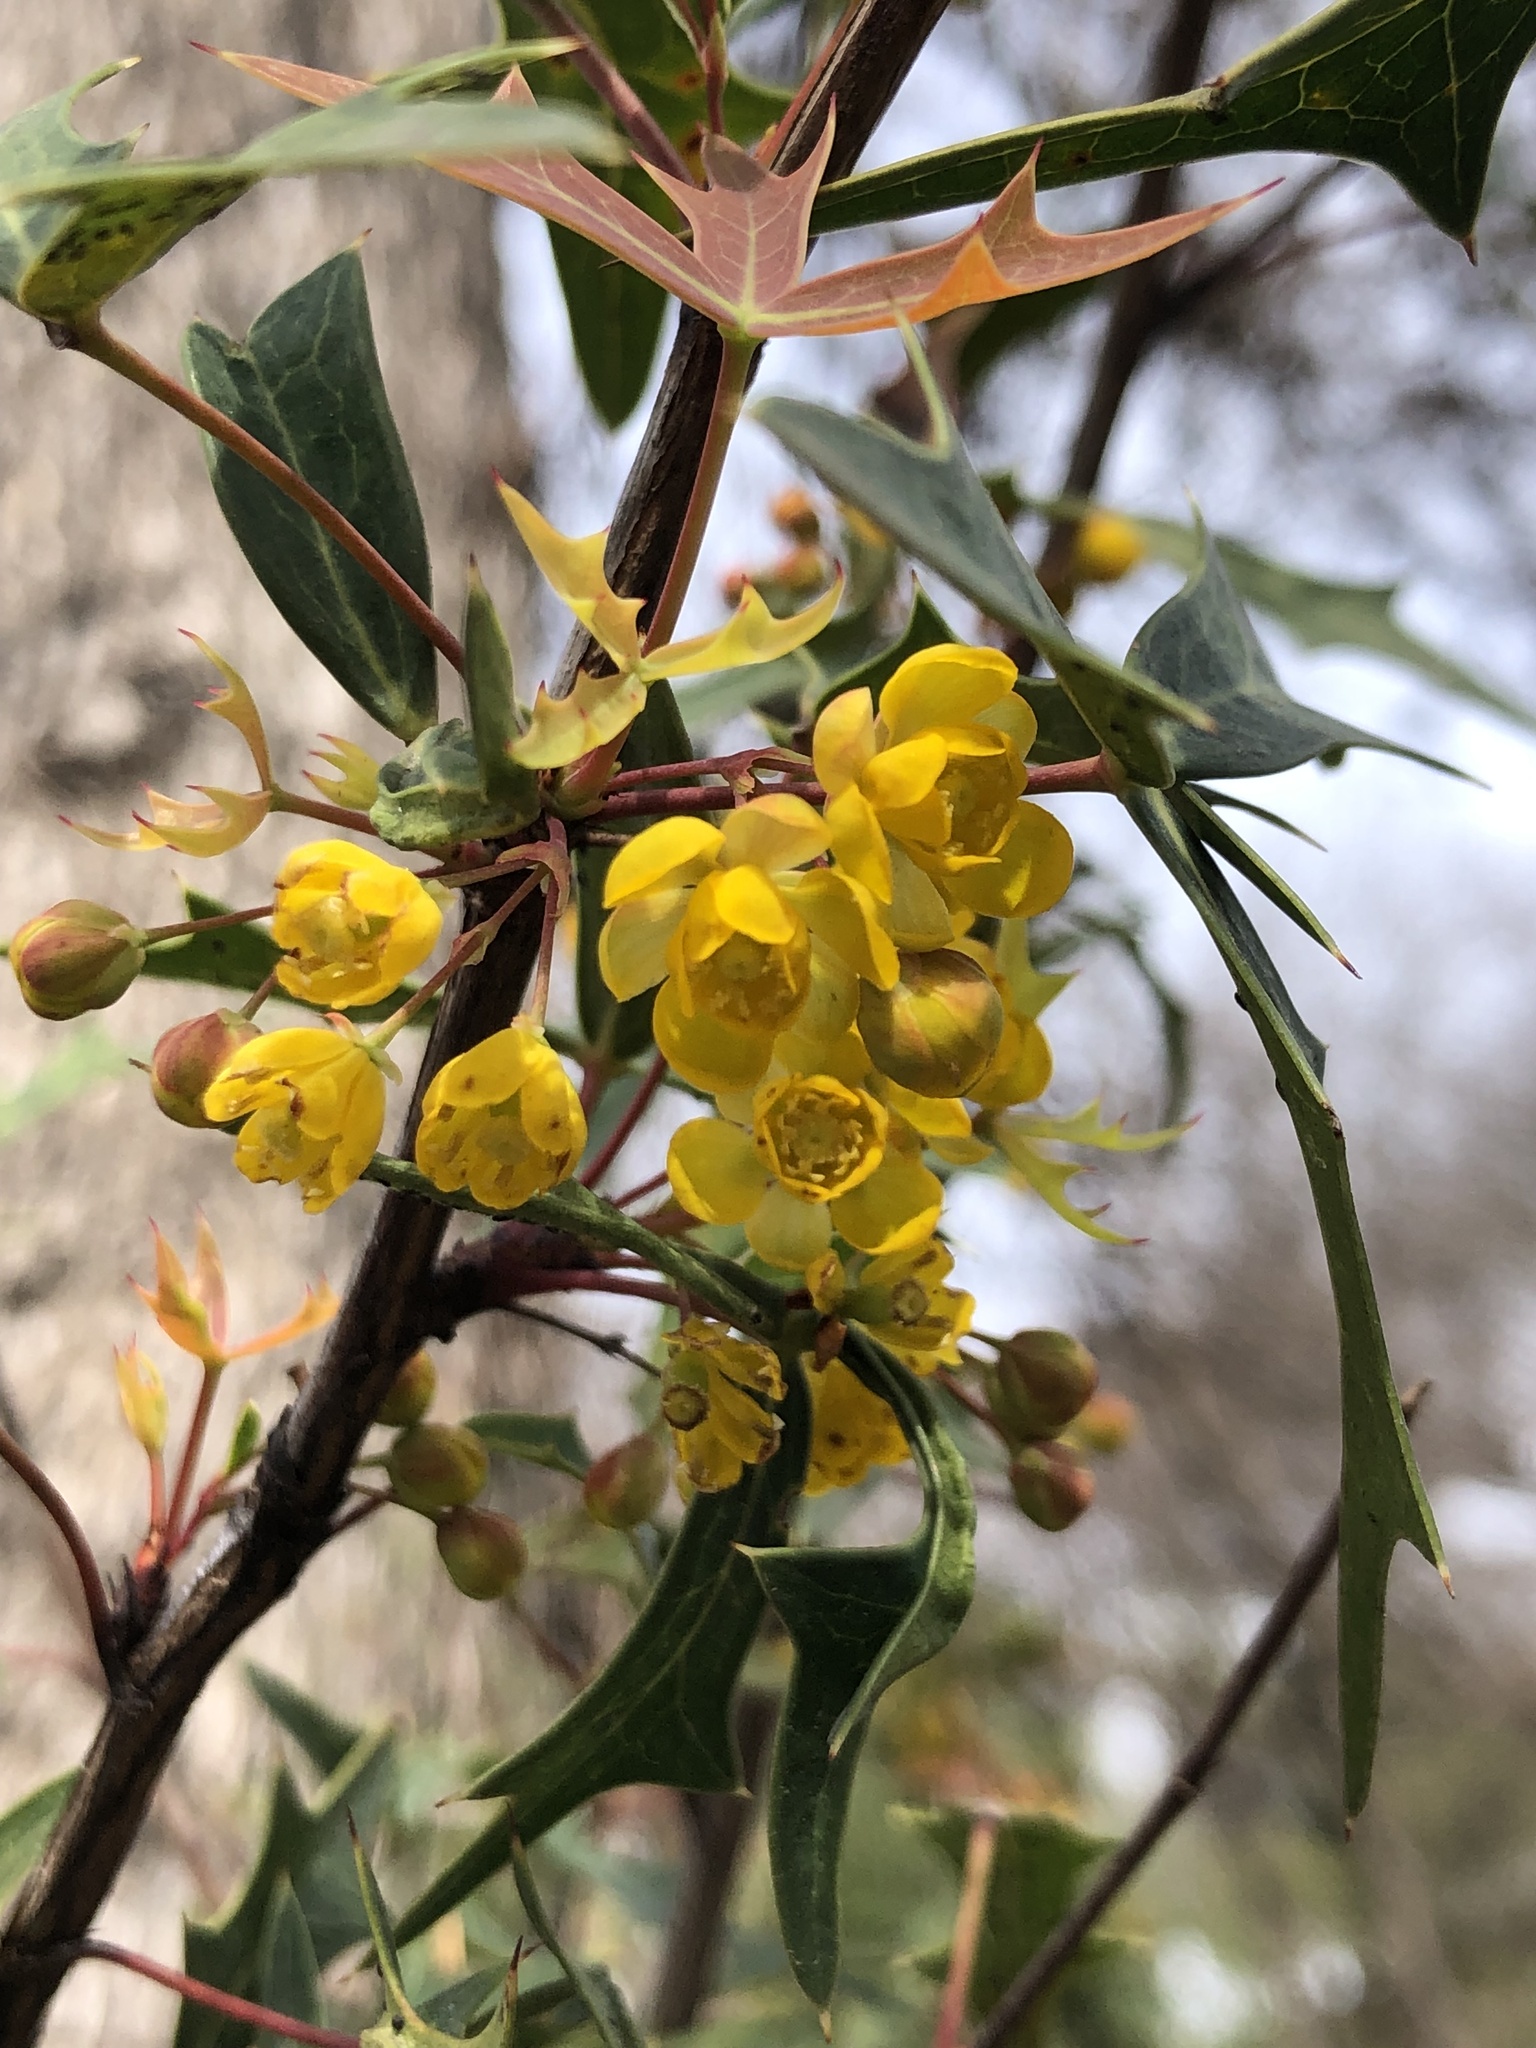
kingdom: Plantae
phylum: Tracheophyta
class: Magnoliopsida
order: Ranunculales
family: Berberidaceae
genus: Alloberberis
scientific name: Alloberberis trifoliolata
